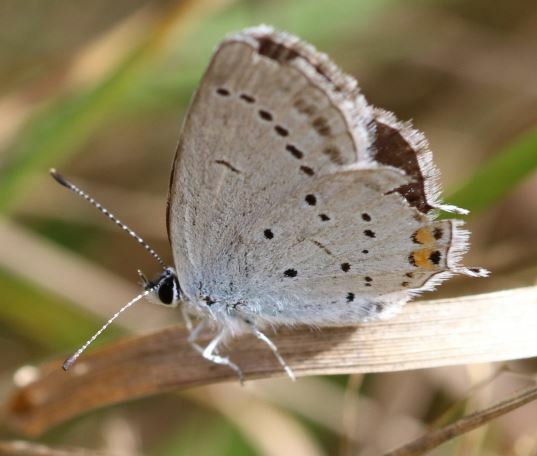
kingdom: Animalia
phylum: Arthropoda
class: Insecta
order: Lepidoptera
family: Lycaenidae
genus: Elkalyce
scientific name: Elkalyce argiades
